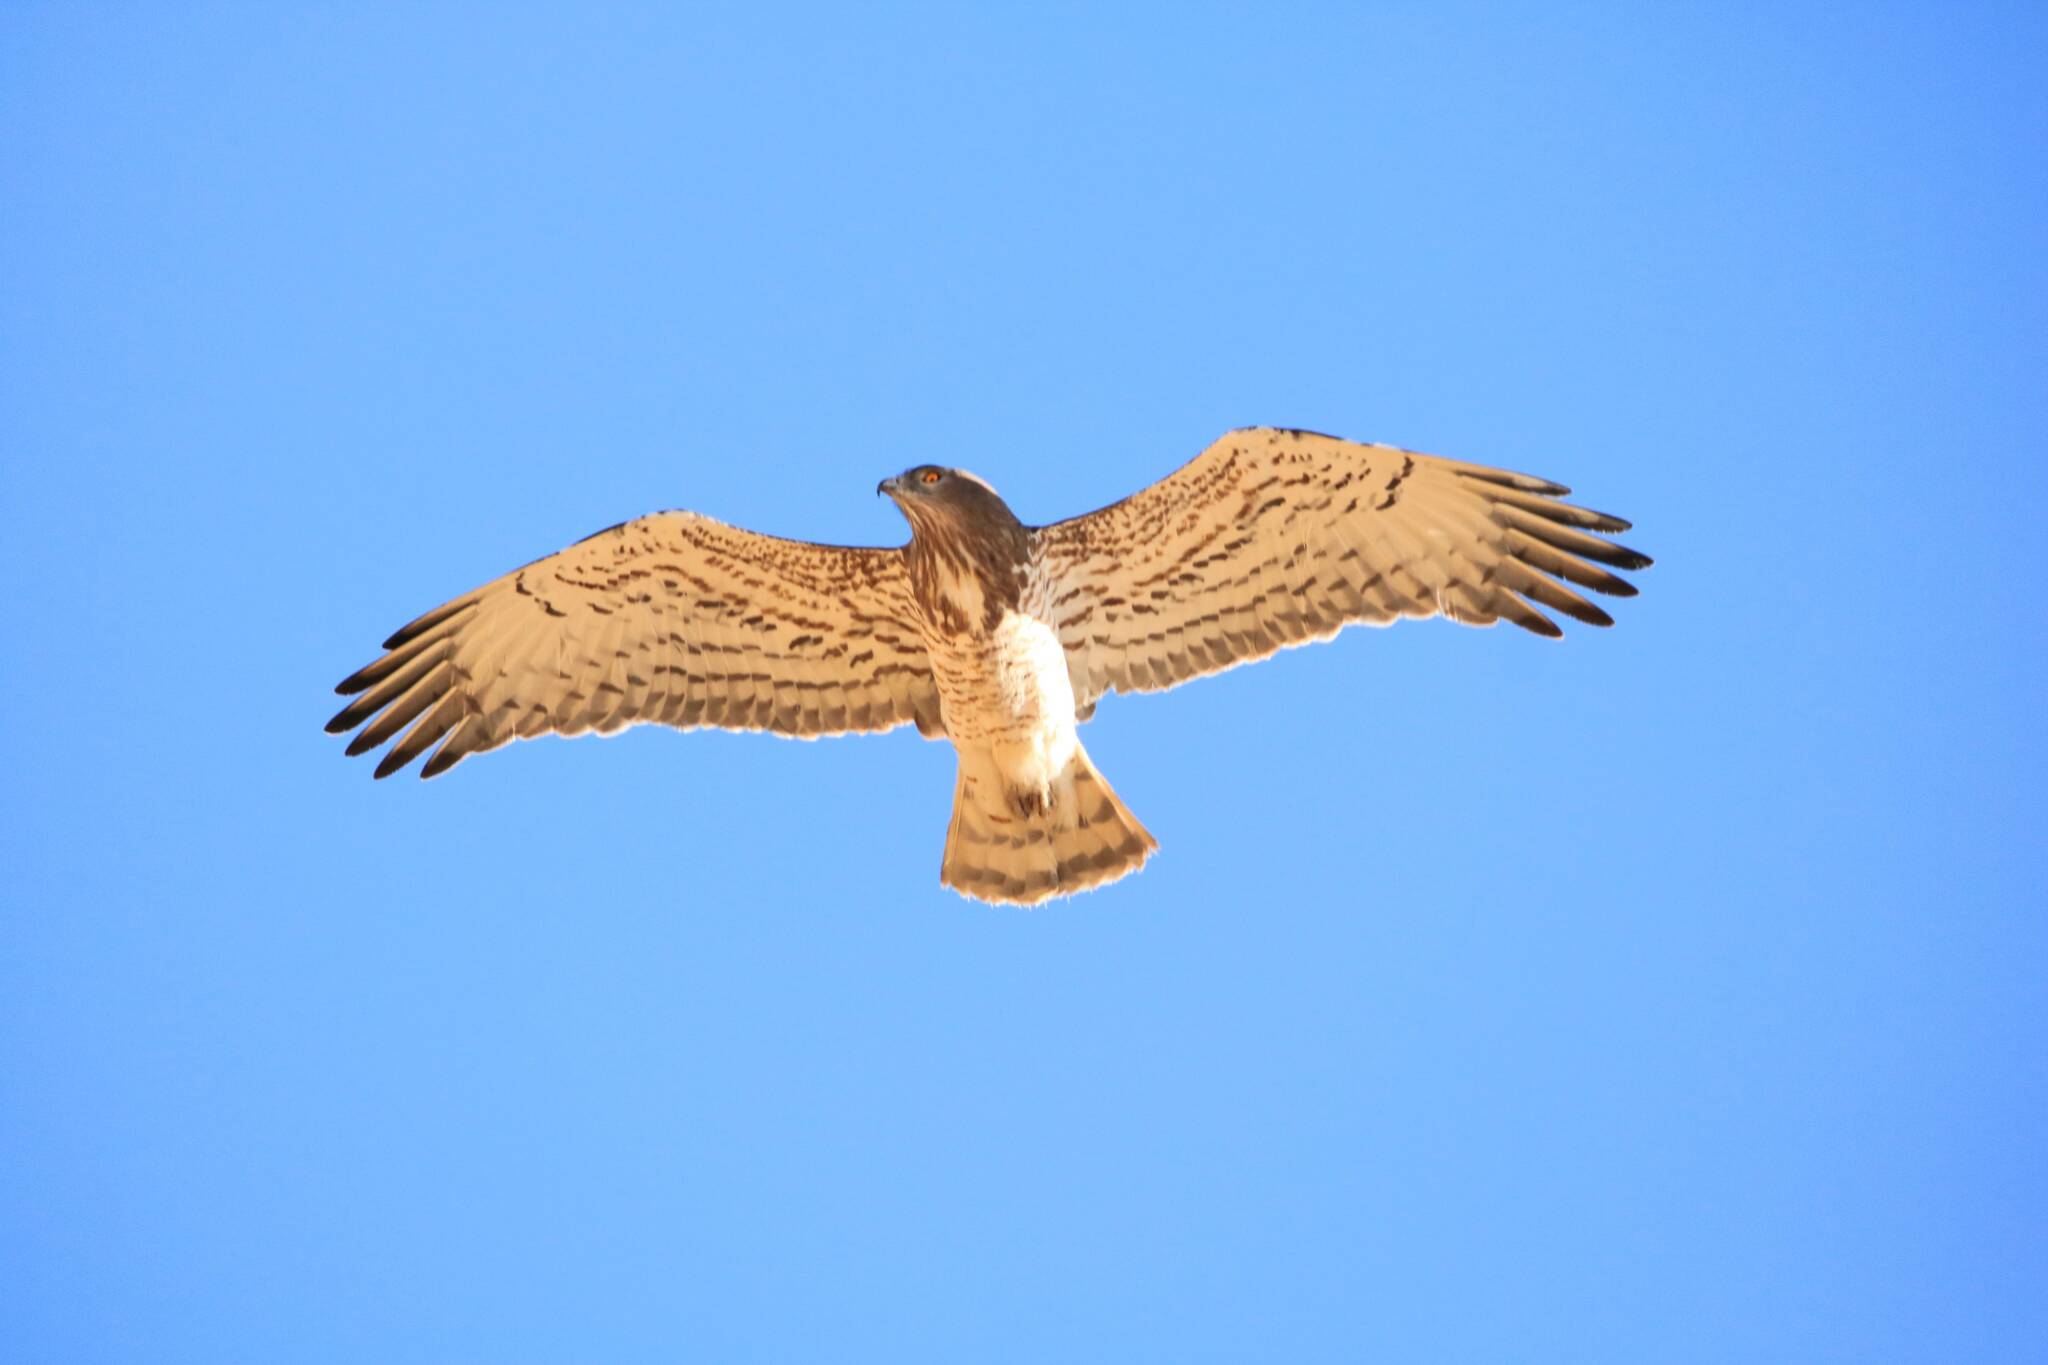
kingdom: Animalia
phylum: Chordata
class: Aves
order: Accipitriformes
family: Accipitridae
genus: Circaetus
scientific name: Circaetus gallicus
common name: Short-toed snake eagle
